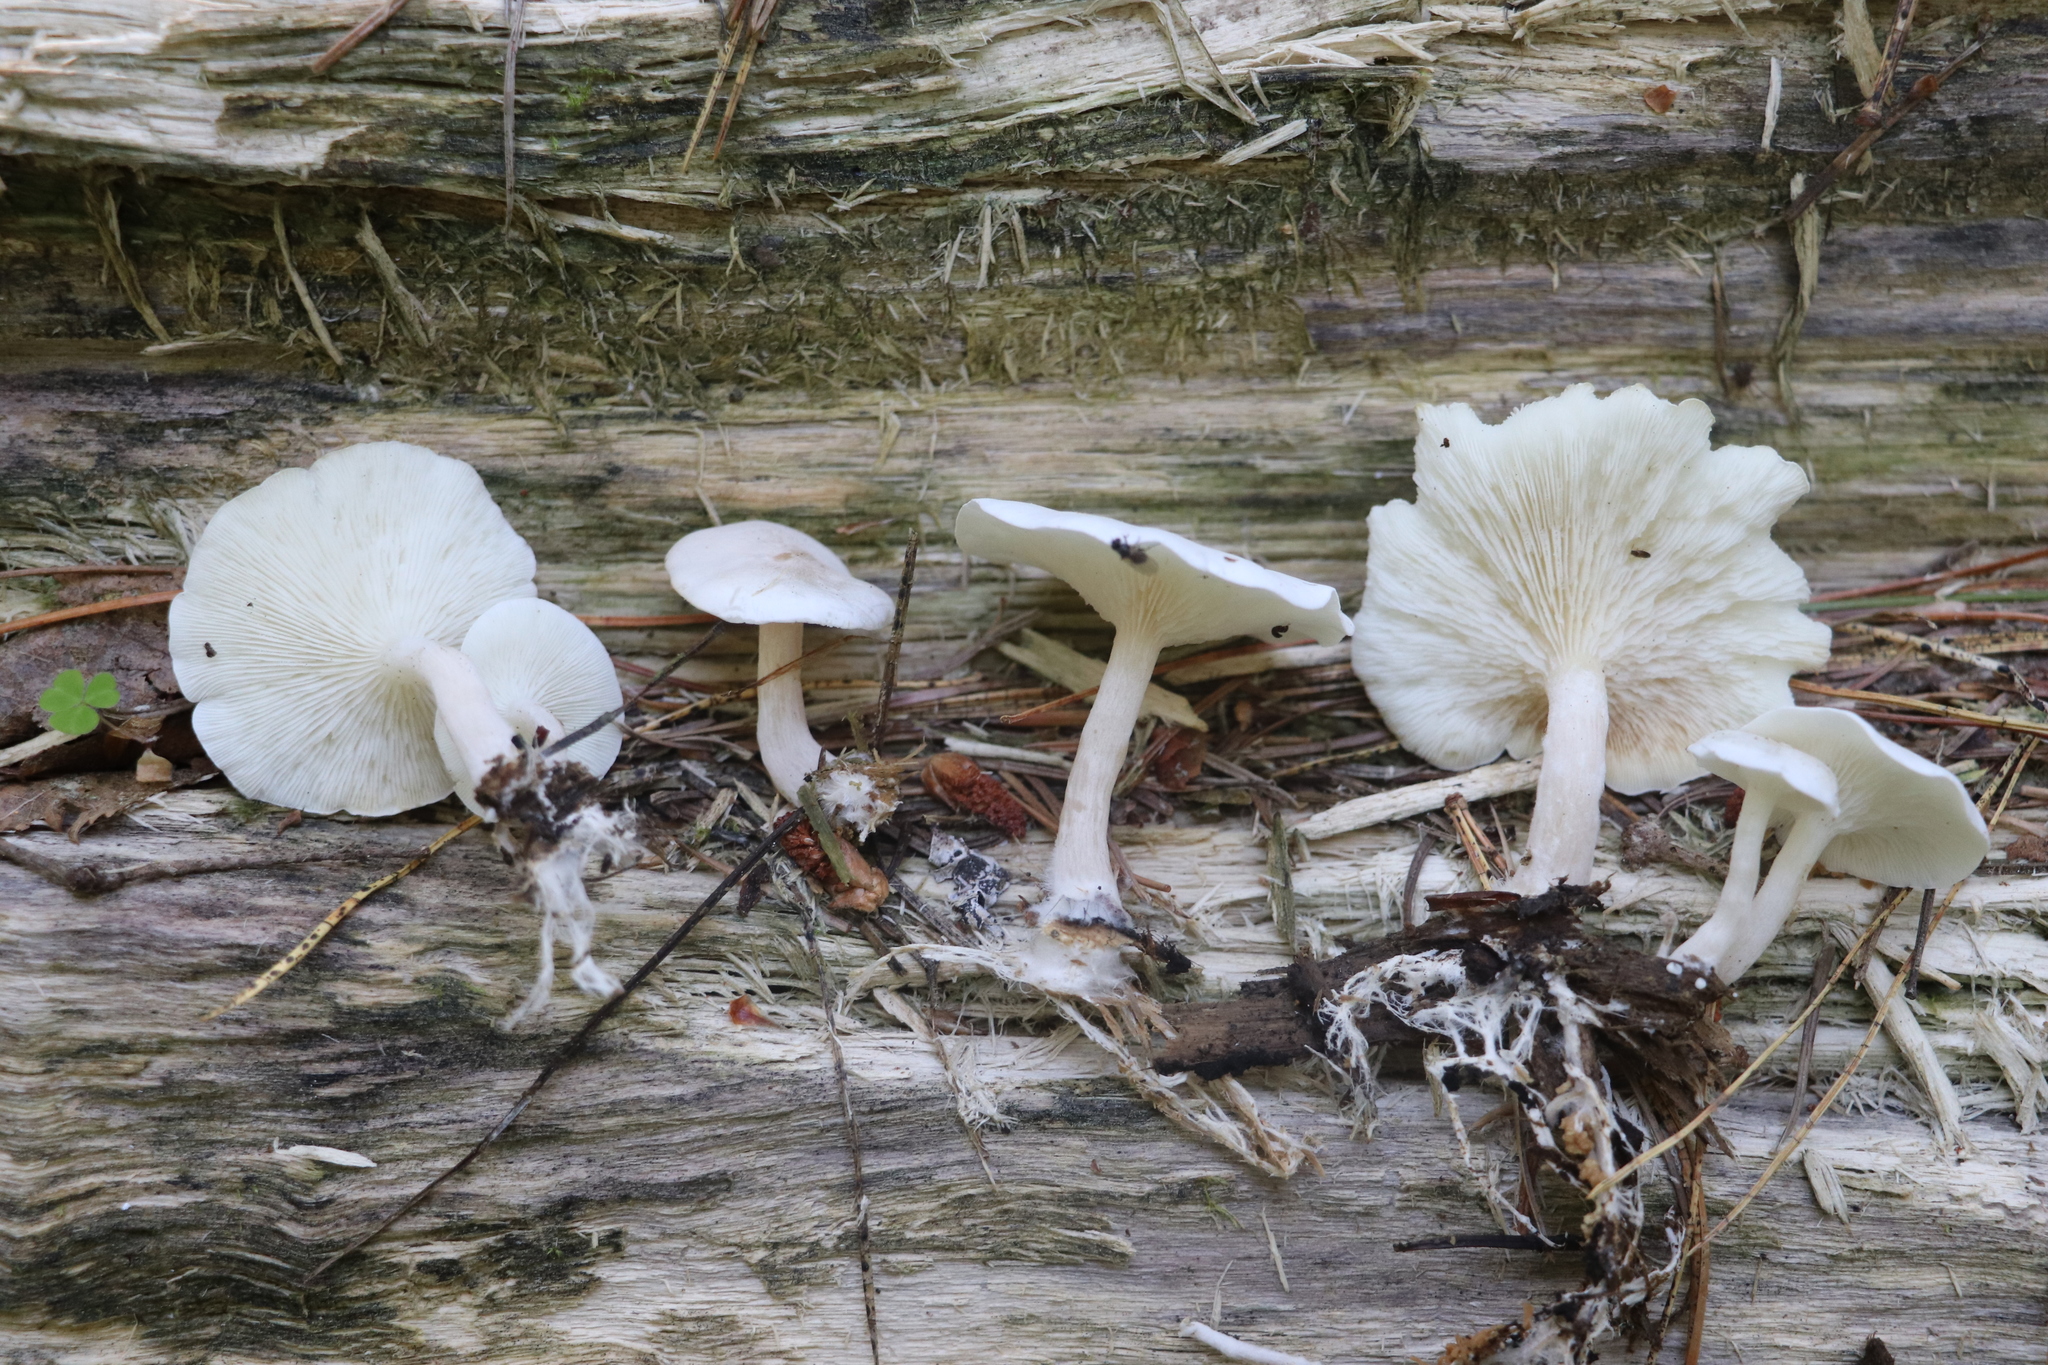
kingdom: Fungi
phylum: Basidiomycota
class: Agaricomycetes
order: Agaricales
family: Lyophyllaceae
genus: Ossicaulis
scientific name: Ossicaulis lignatilis
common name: Mealy oyster
